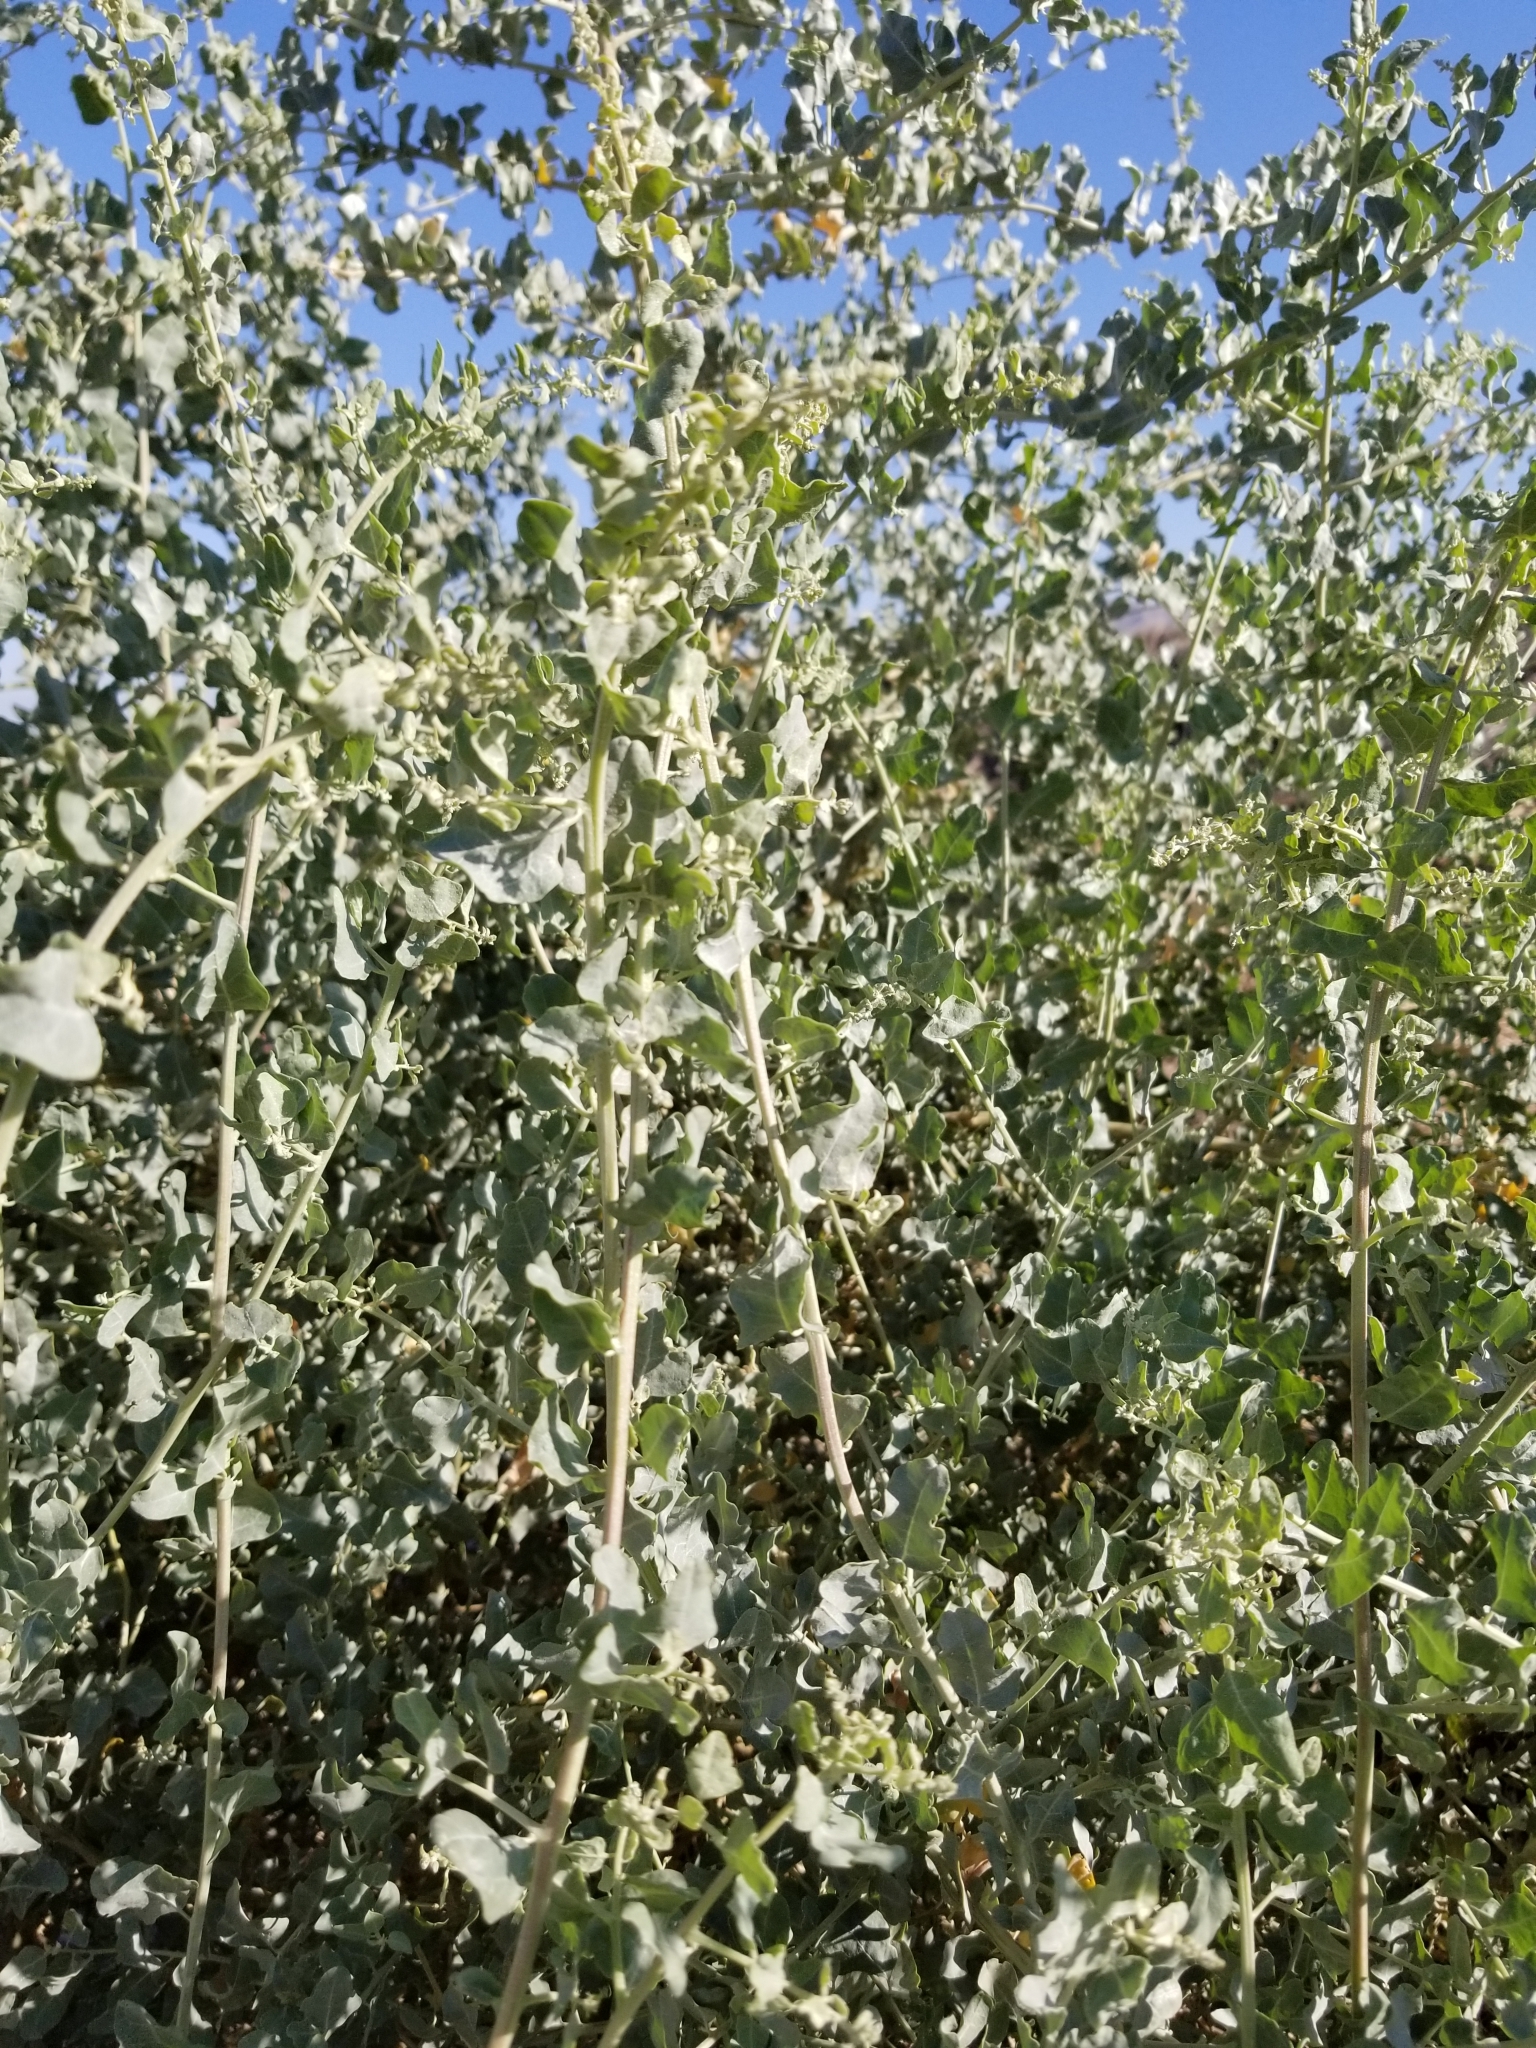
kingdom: Plantae
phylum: Tracheophyta
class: Magnoliopsida
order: Caryophyllales
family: Amaranthaceae
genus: Atriplex
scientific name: Atriplex lentiformis
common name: Big saltbush
